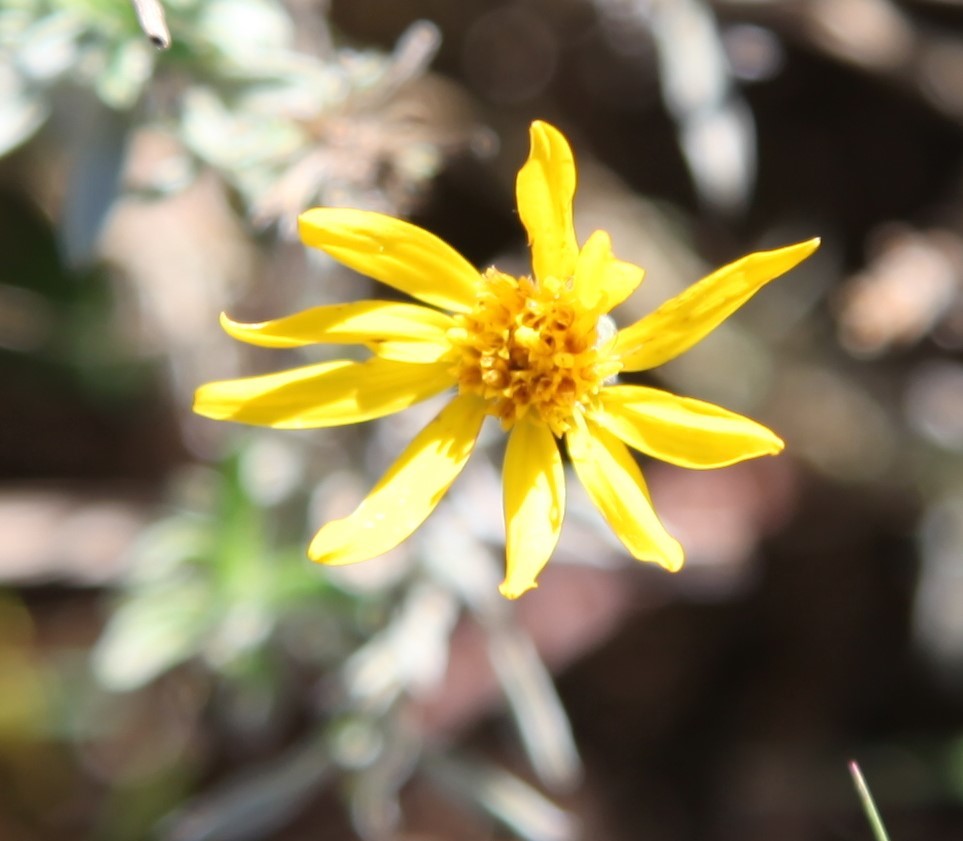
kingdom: Plantae
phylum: Tracheophyta
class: Magnoliopsida
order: Asterales
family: Asteraceae
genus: Heterotheca
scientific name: Heterotheca canescens
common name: Hoary golden-aster
